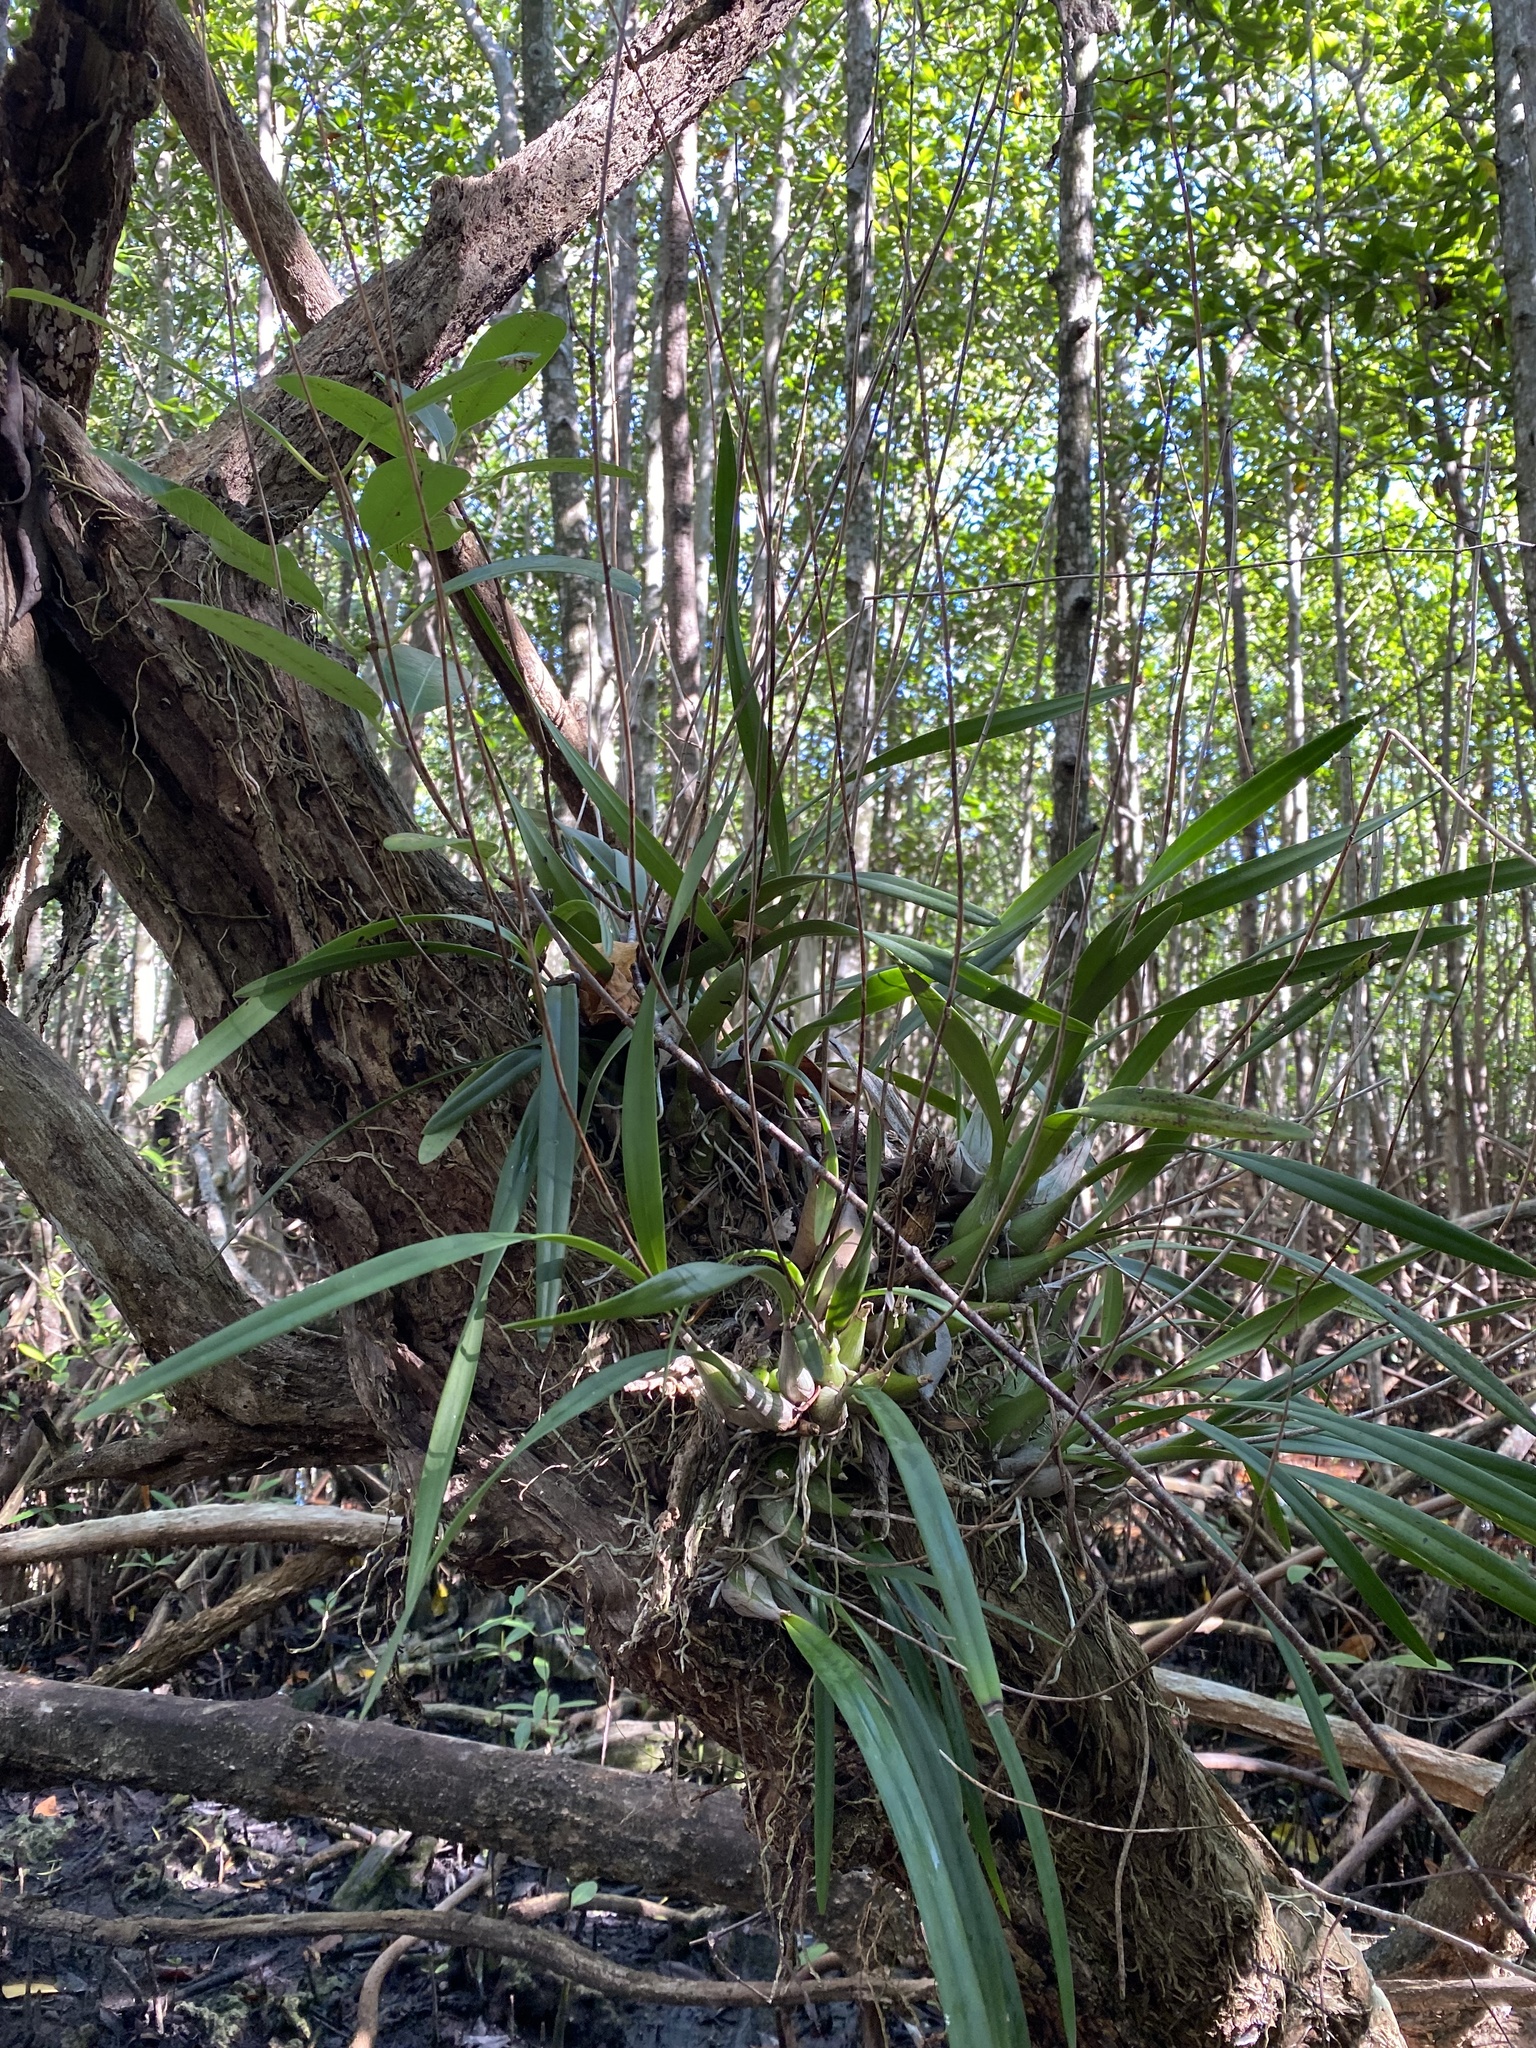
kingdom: Plantae
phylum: Tracheophyta
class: Liliopsida
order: Asparagales
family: Orchidaceae
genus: Encyclia
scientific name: Encyclia tampensis
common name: Florida butterfly orchid
